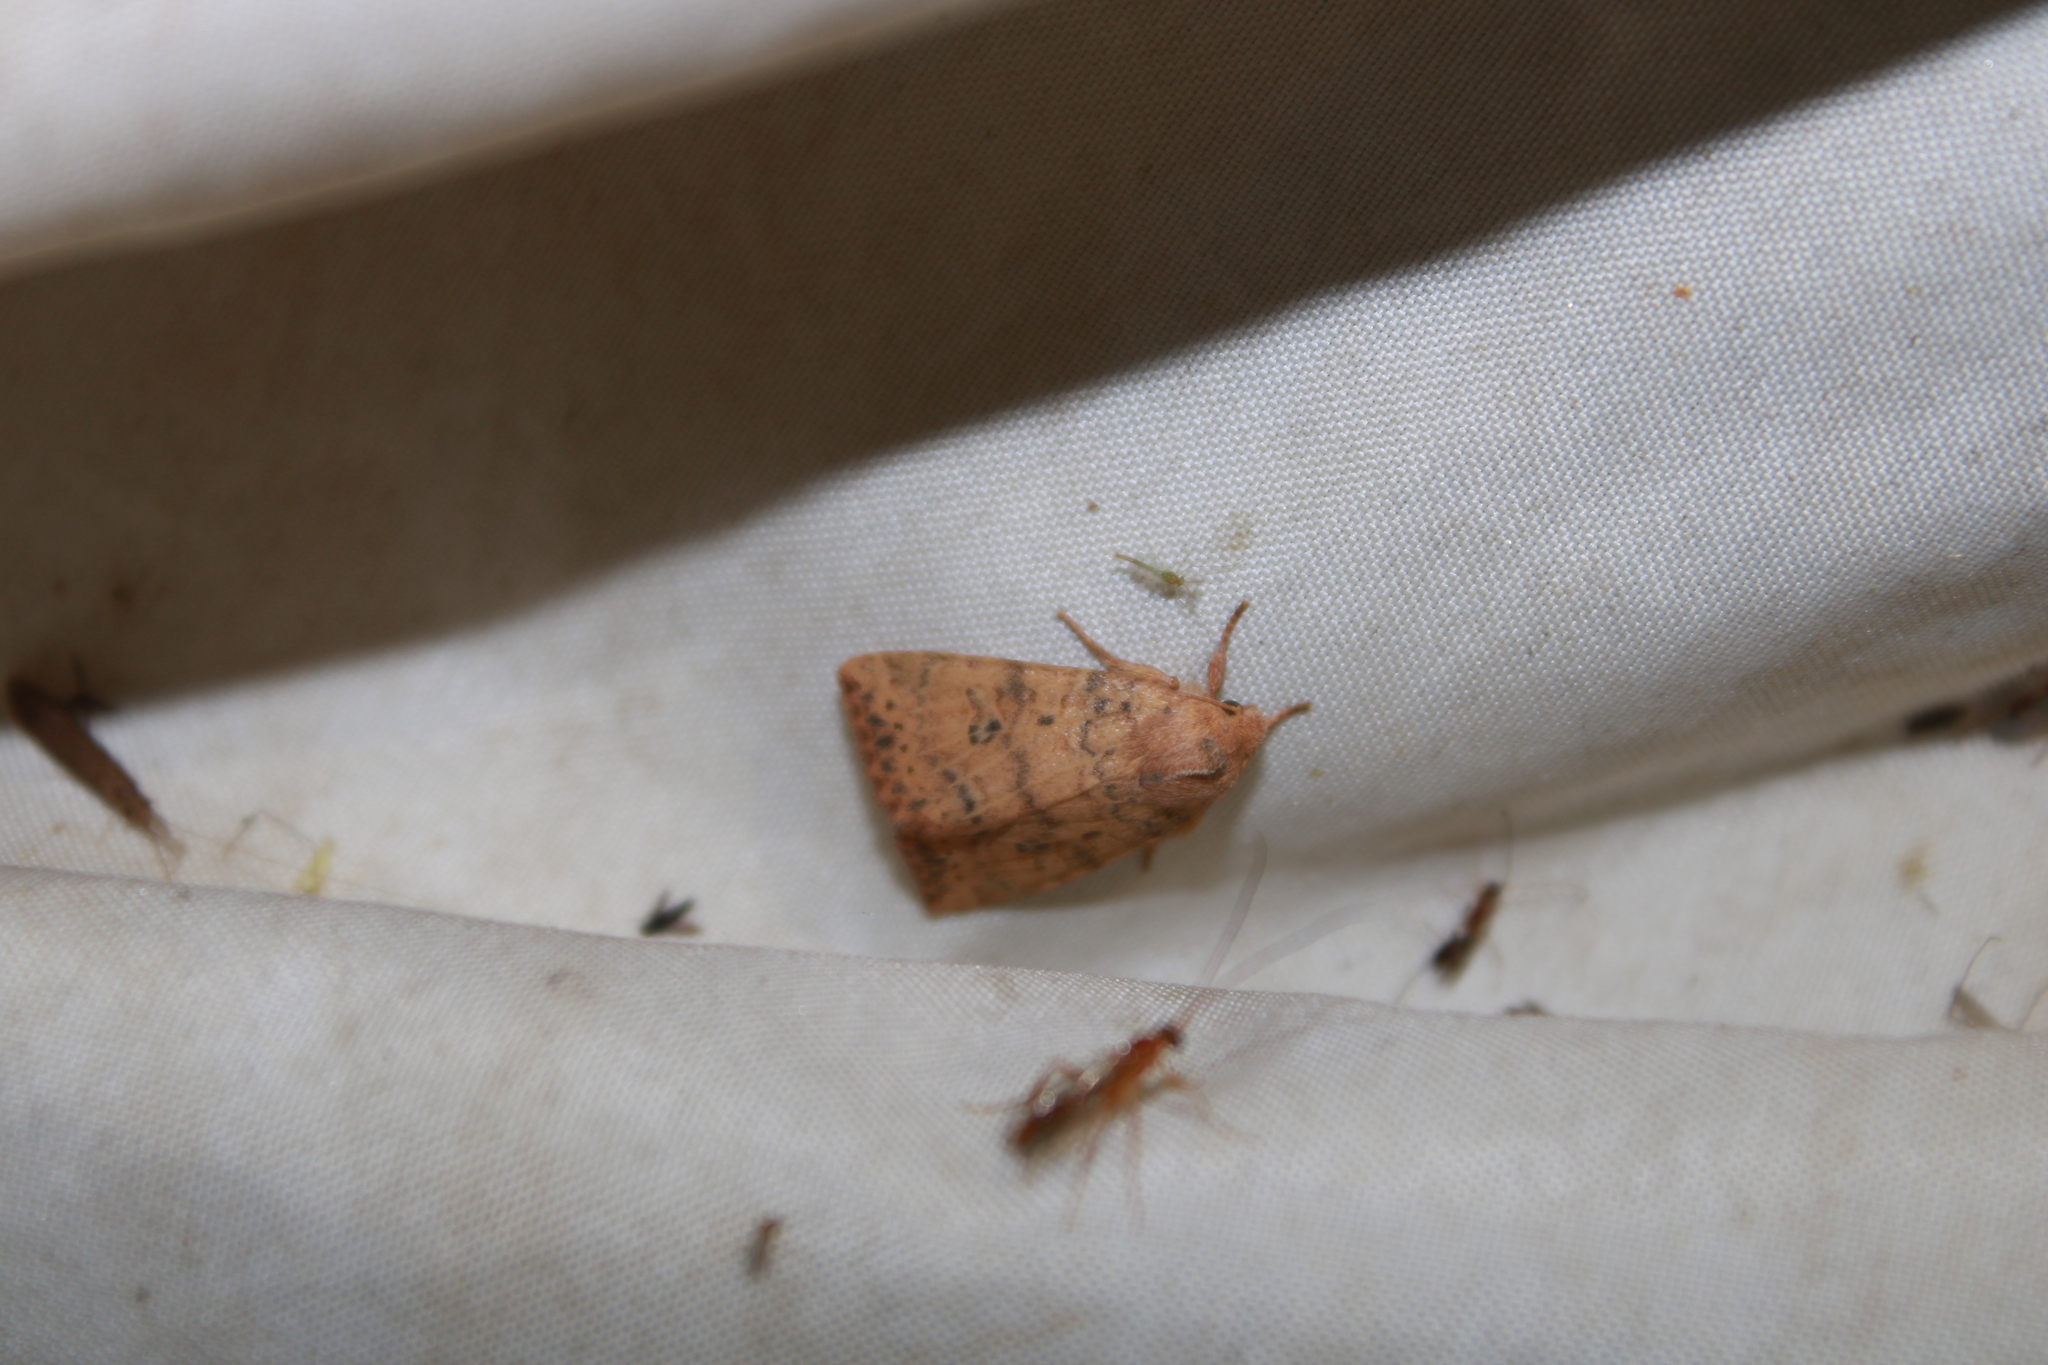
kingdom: Animalia
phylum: Arthropoda
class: Insecta
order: Lepidoptera
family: Noctuidae
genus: Anathix
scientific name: Anathix ralla
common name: Dotted sallow
